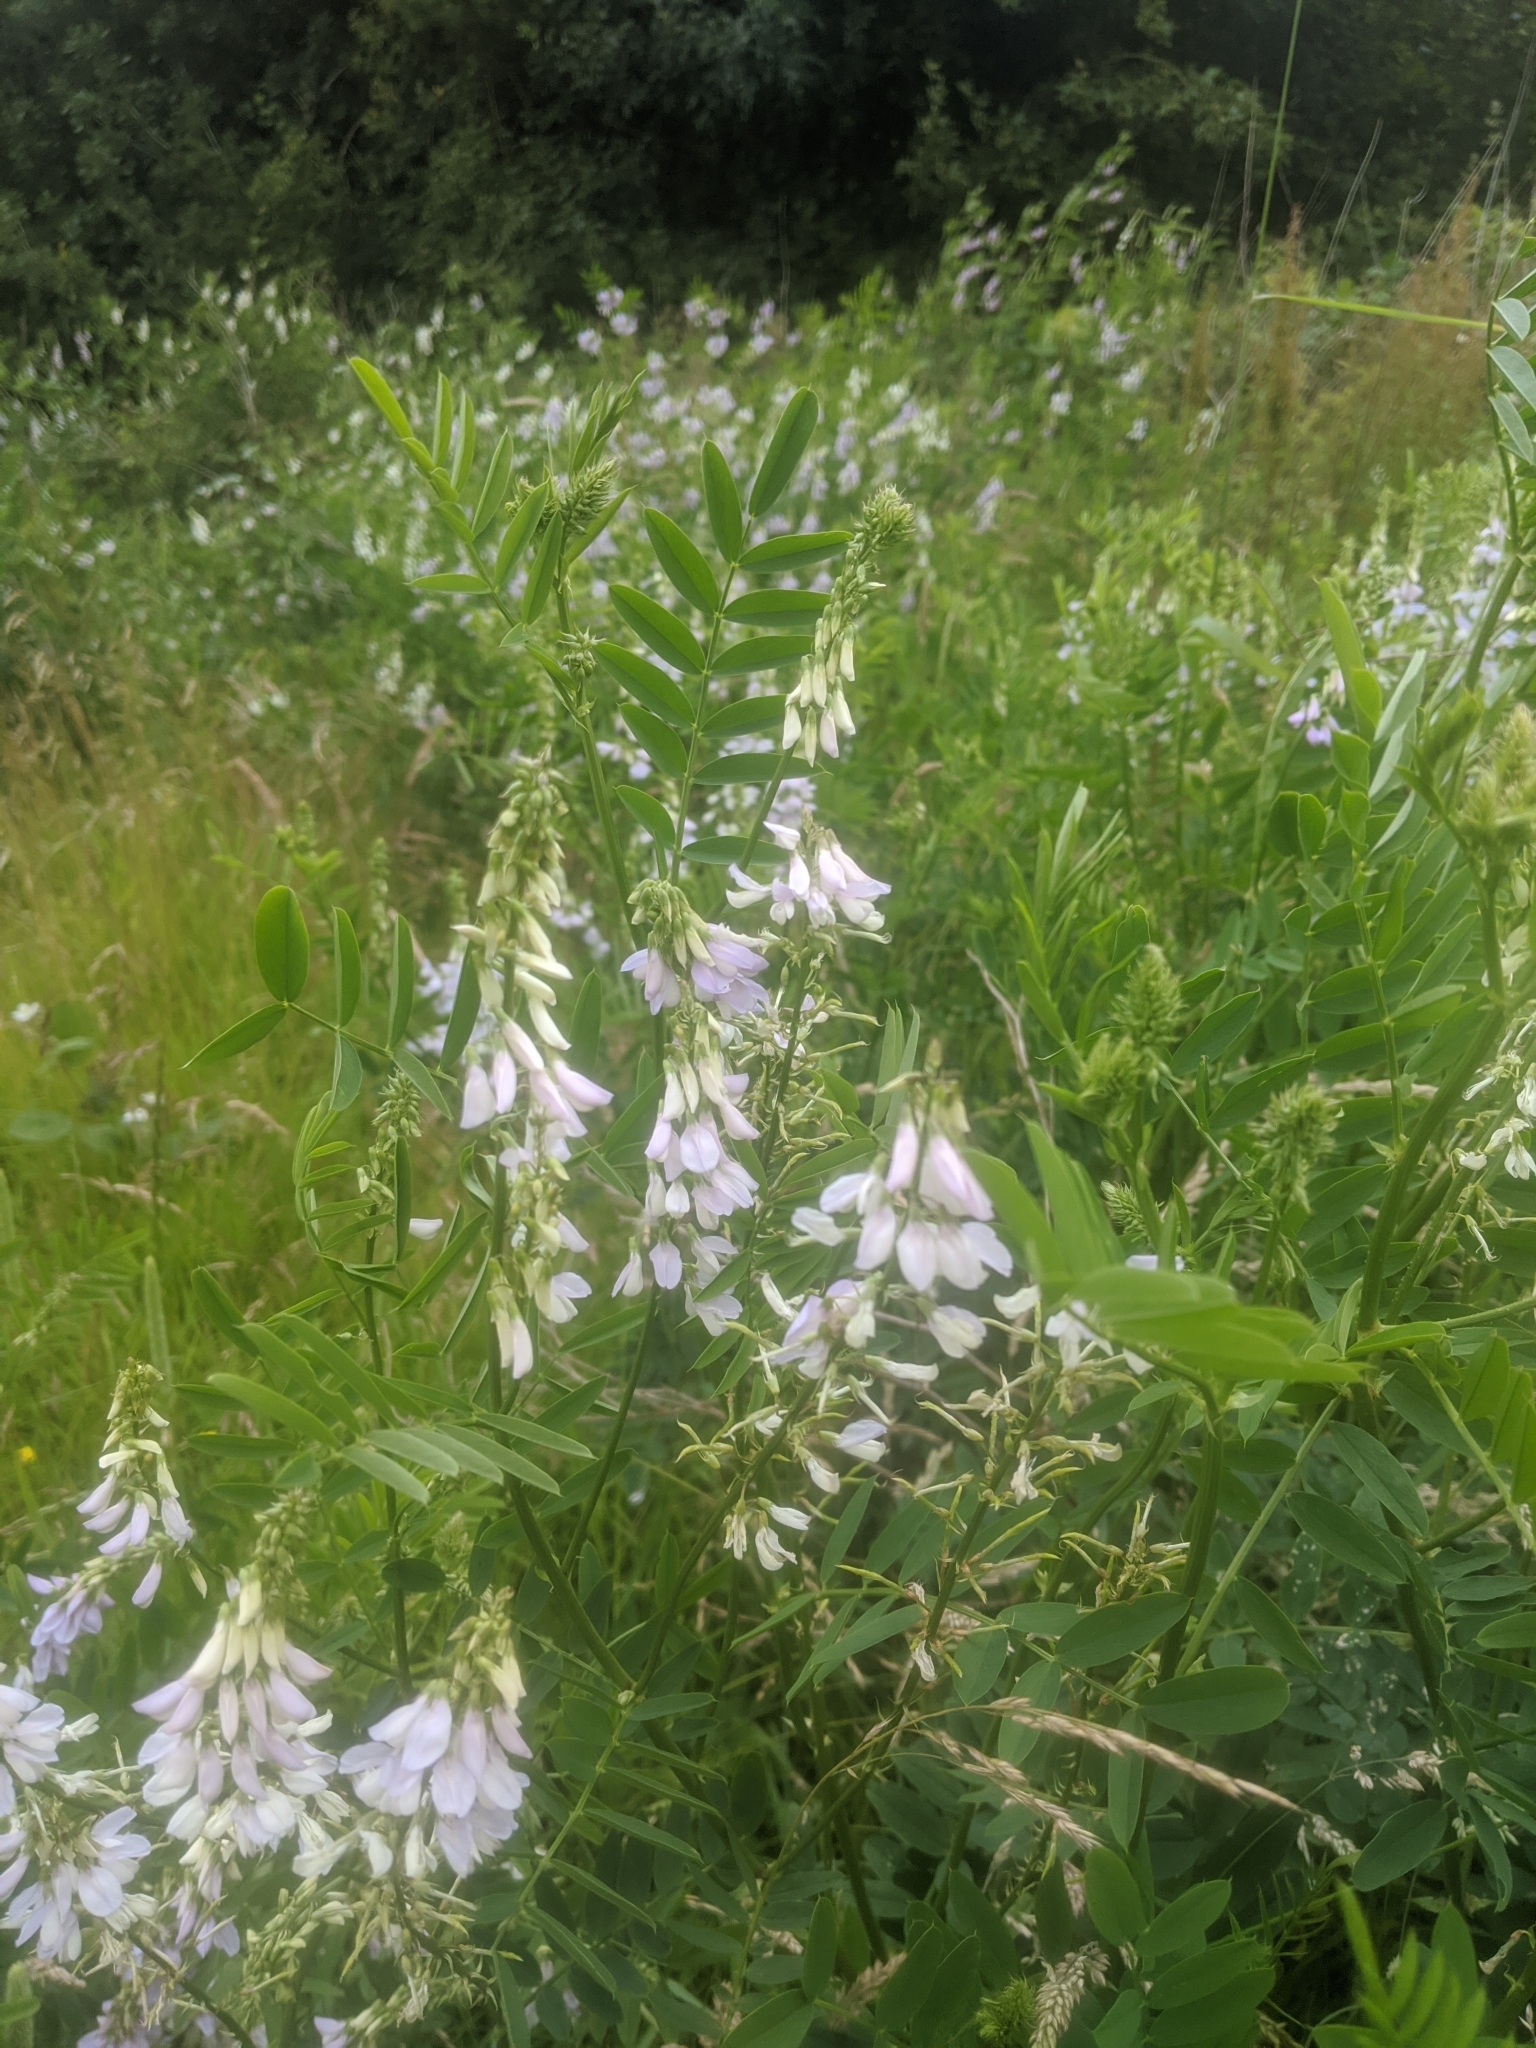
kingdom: Plantae
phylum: Tracheophyta
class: Magnoliopsida
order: Fabales
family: Fabaceae
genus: Galega
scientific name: Galega officinalis
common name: Goat's-rue
